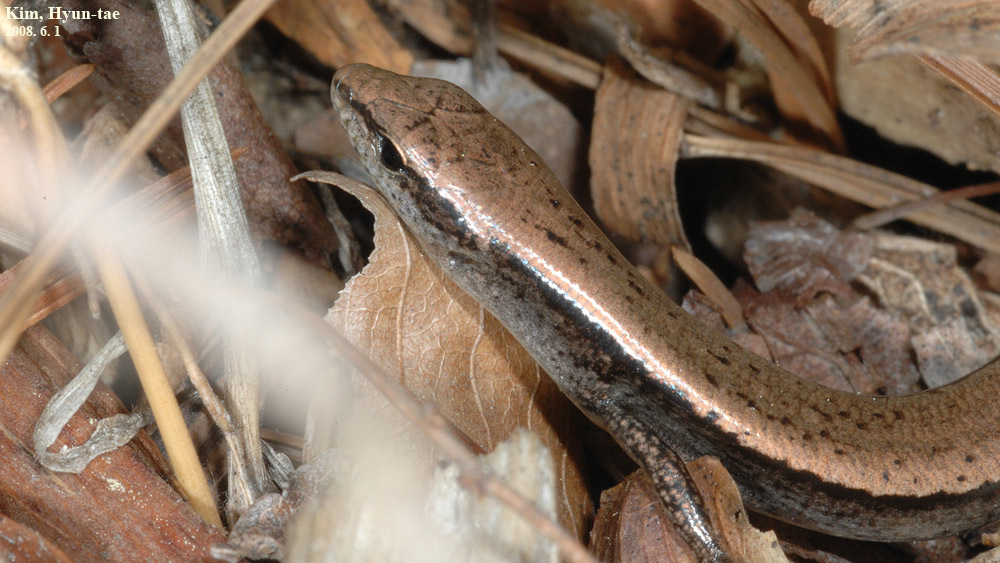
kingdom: Animalia
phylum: Chordata
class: Squamata
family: Scincidae
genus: Scincella
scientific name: Scincella vandenburghi
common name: Tsushima smooth skink
